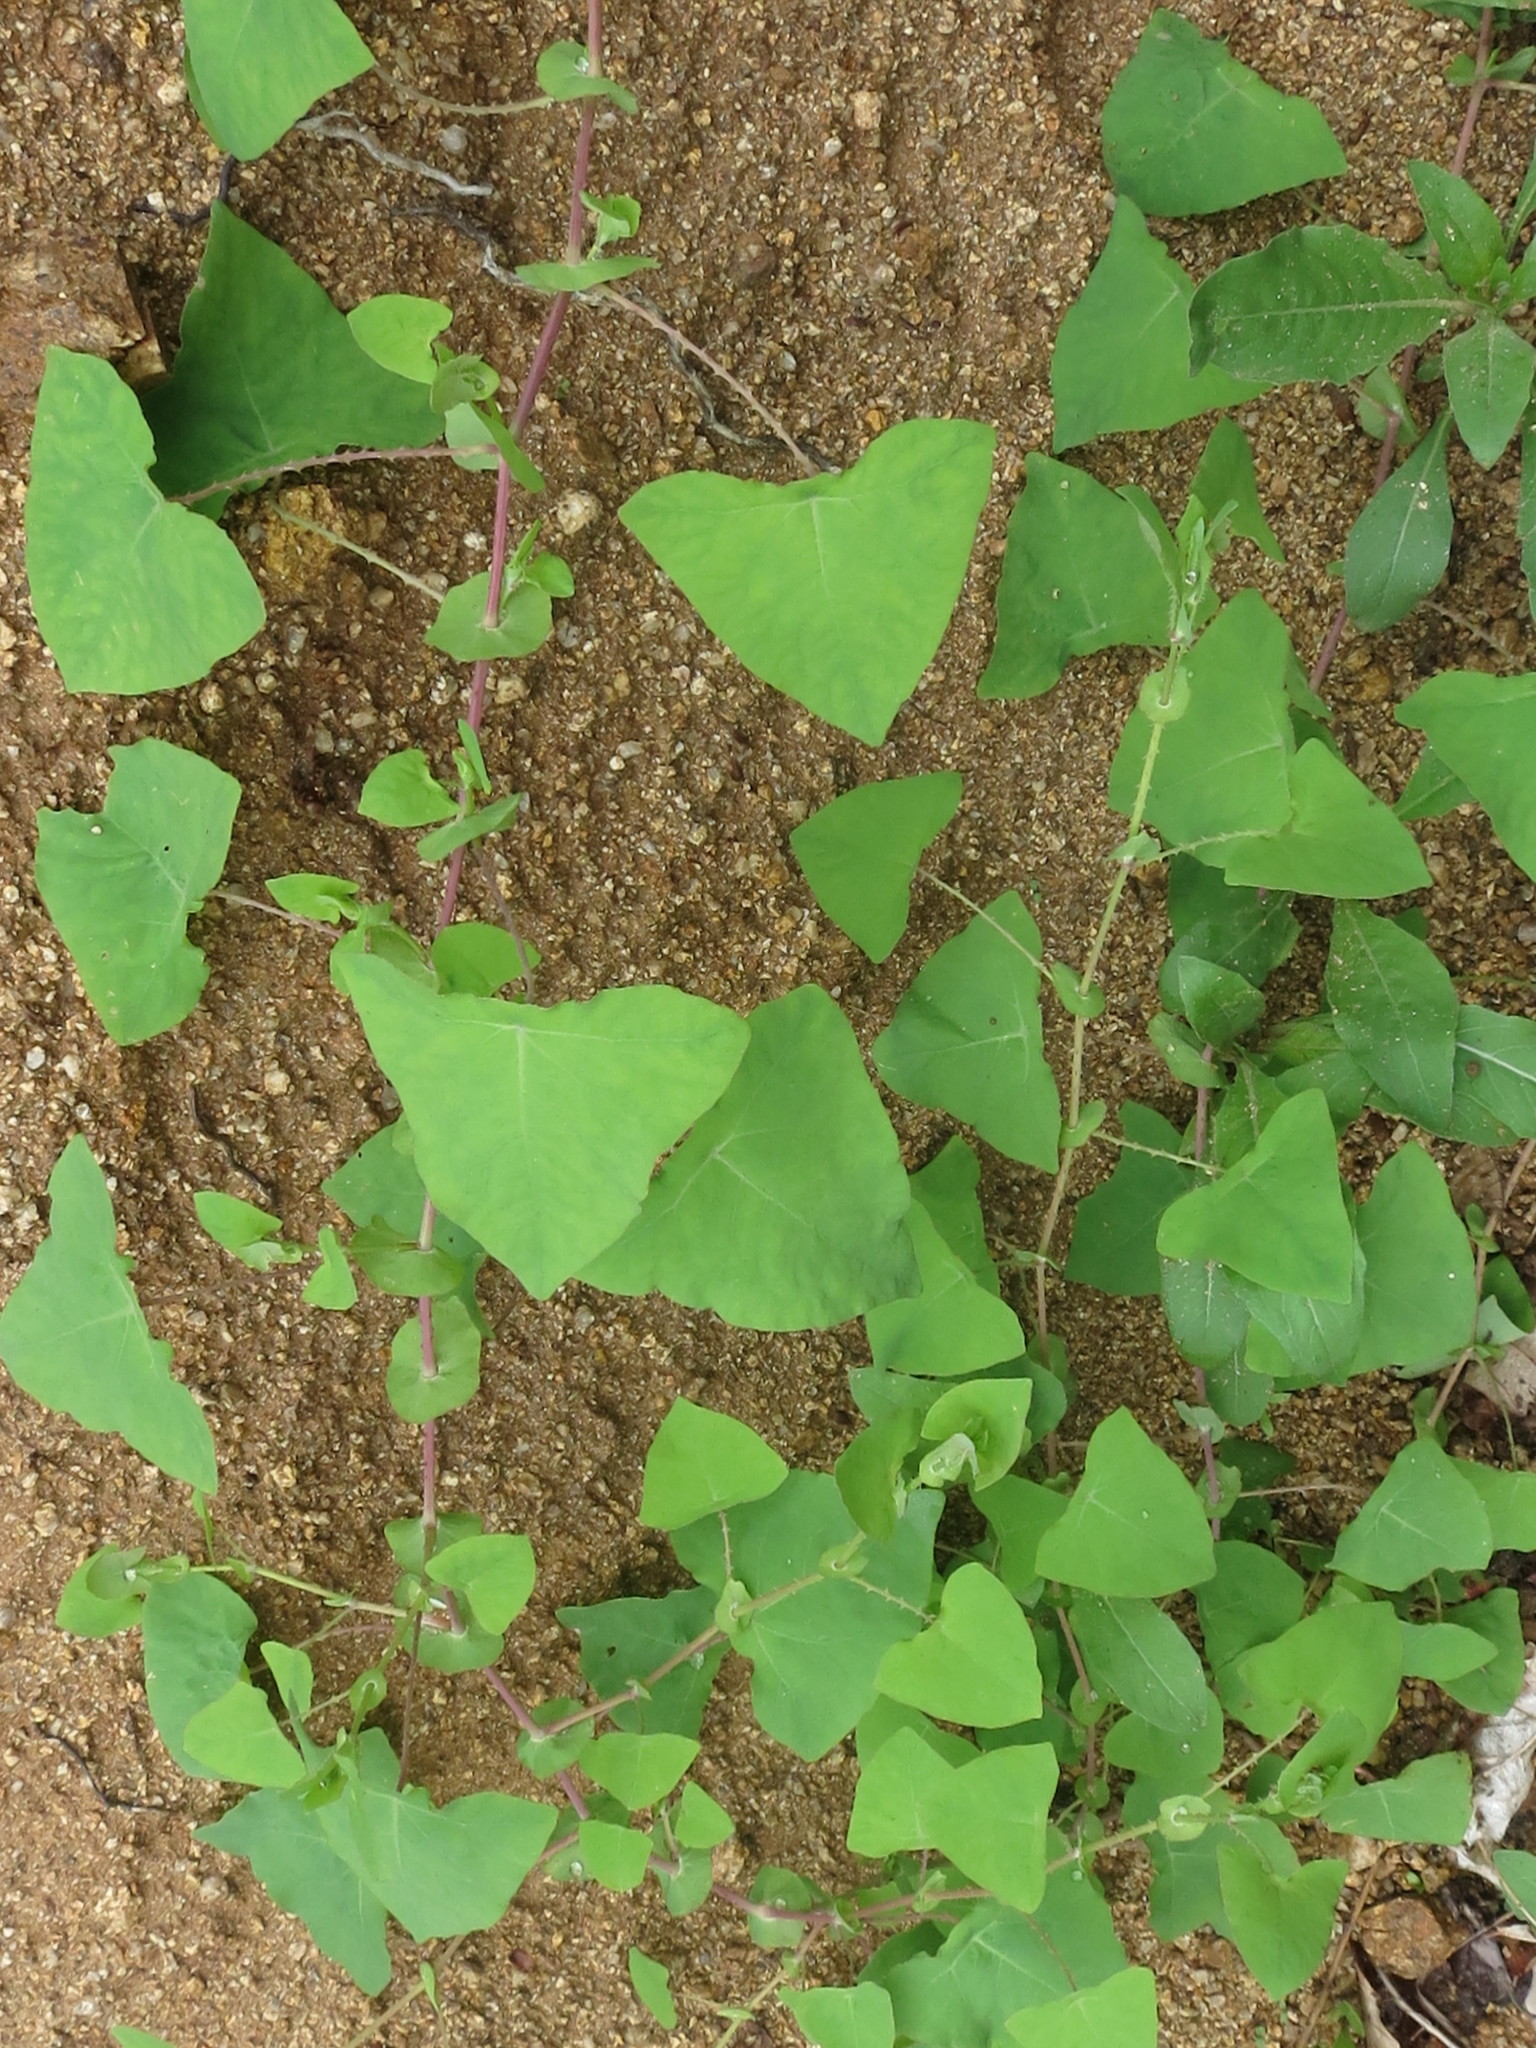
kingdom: Plantae
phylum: Tracheophyta
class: Magnoliopsida
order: Caryophyllales
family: Polygonaceae
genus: Persicaria
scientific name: Persicaria perfoliata
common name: Asiatic tearthumb
